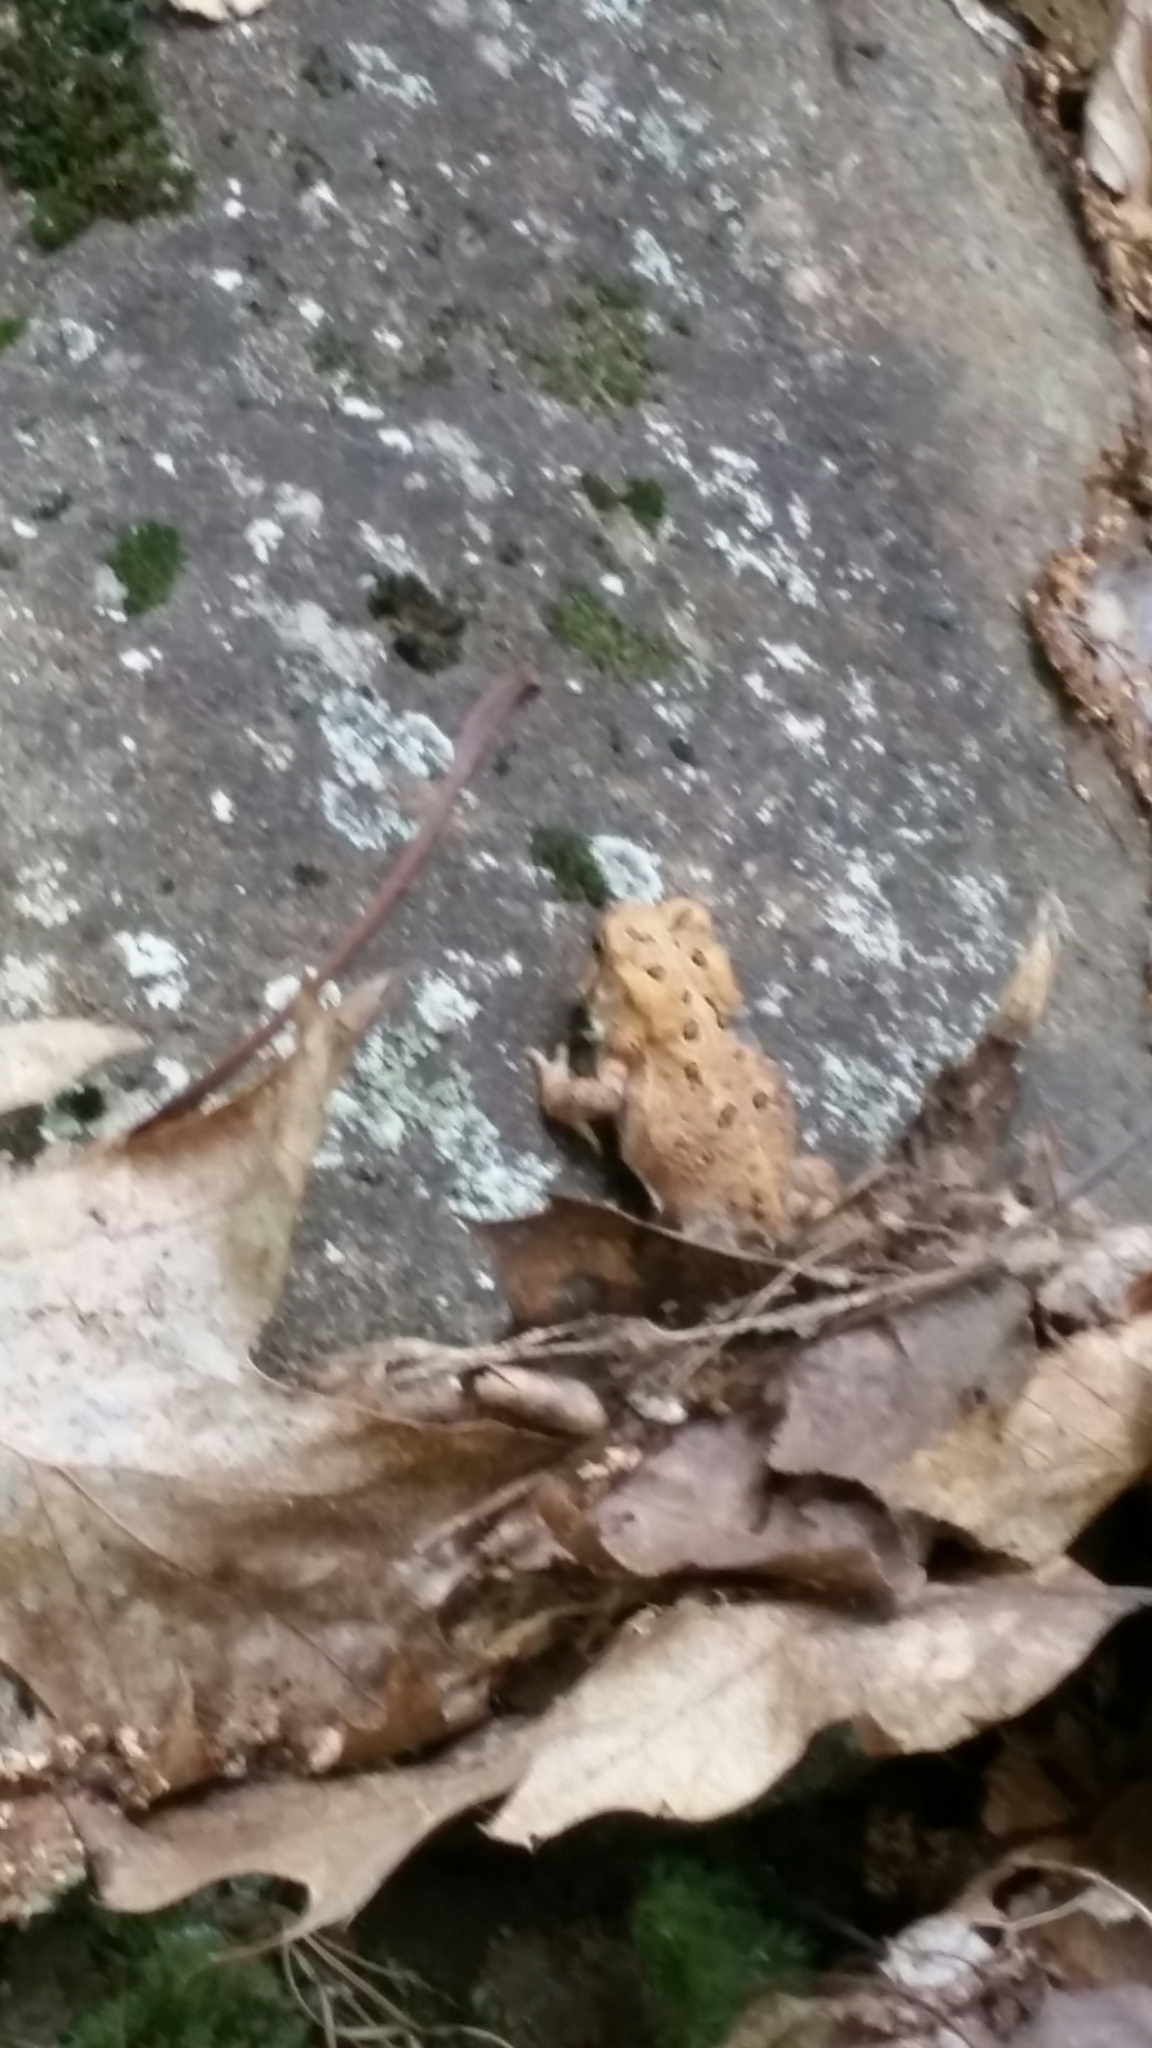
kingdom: Animalia
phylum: Chordata
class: Amphibia
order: Anura
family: Bufonidae
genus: Anaxyrus
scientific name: Anaxyrus americanus
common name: American toad
